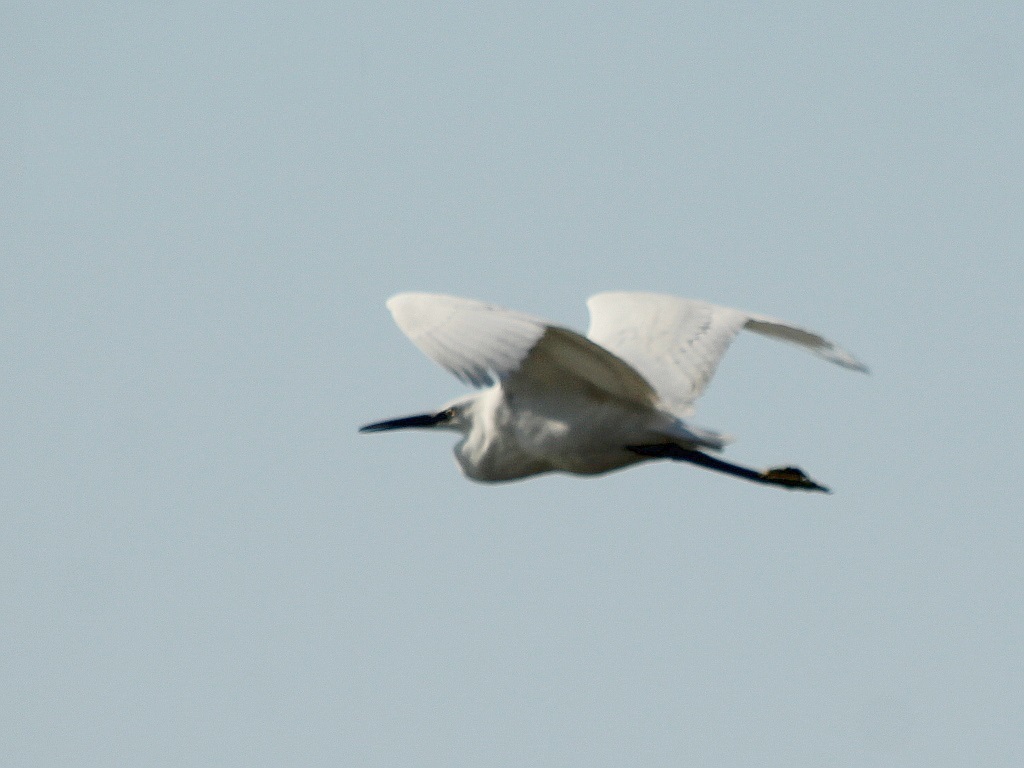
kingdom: Animalia
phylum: Chordata
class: Aves
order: Pelecaniformes
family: Ardeidae
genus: Egretta
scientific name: Egretta garzetta
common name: Little egret
